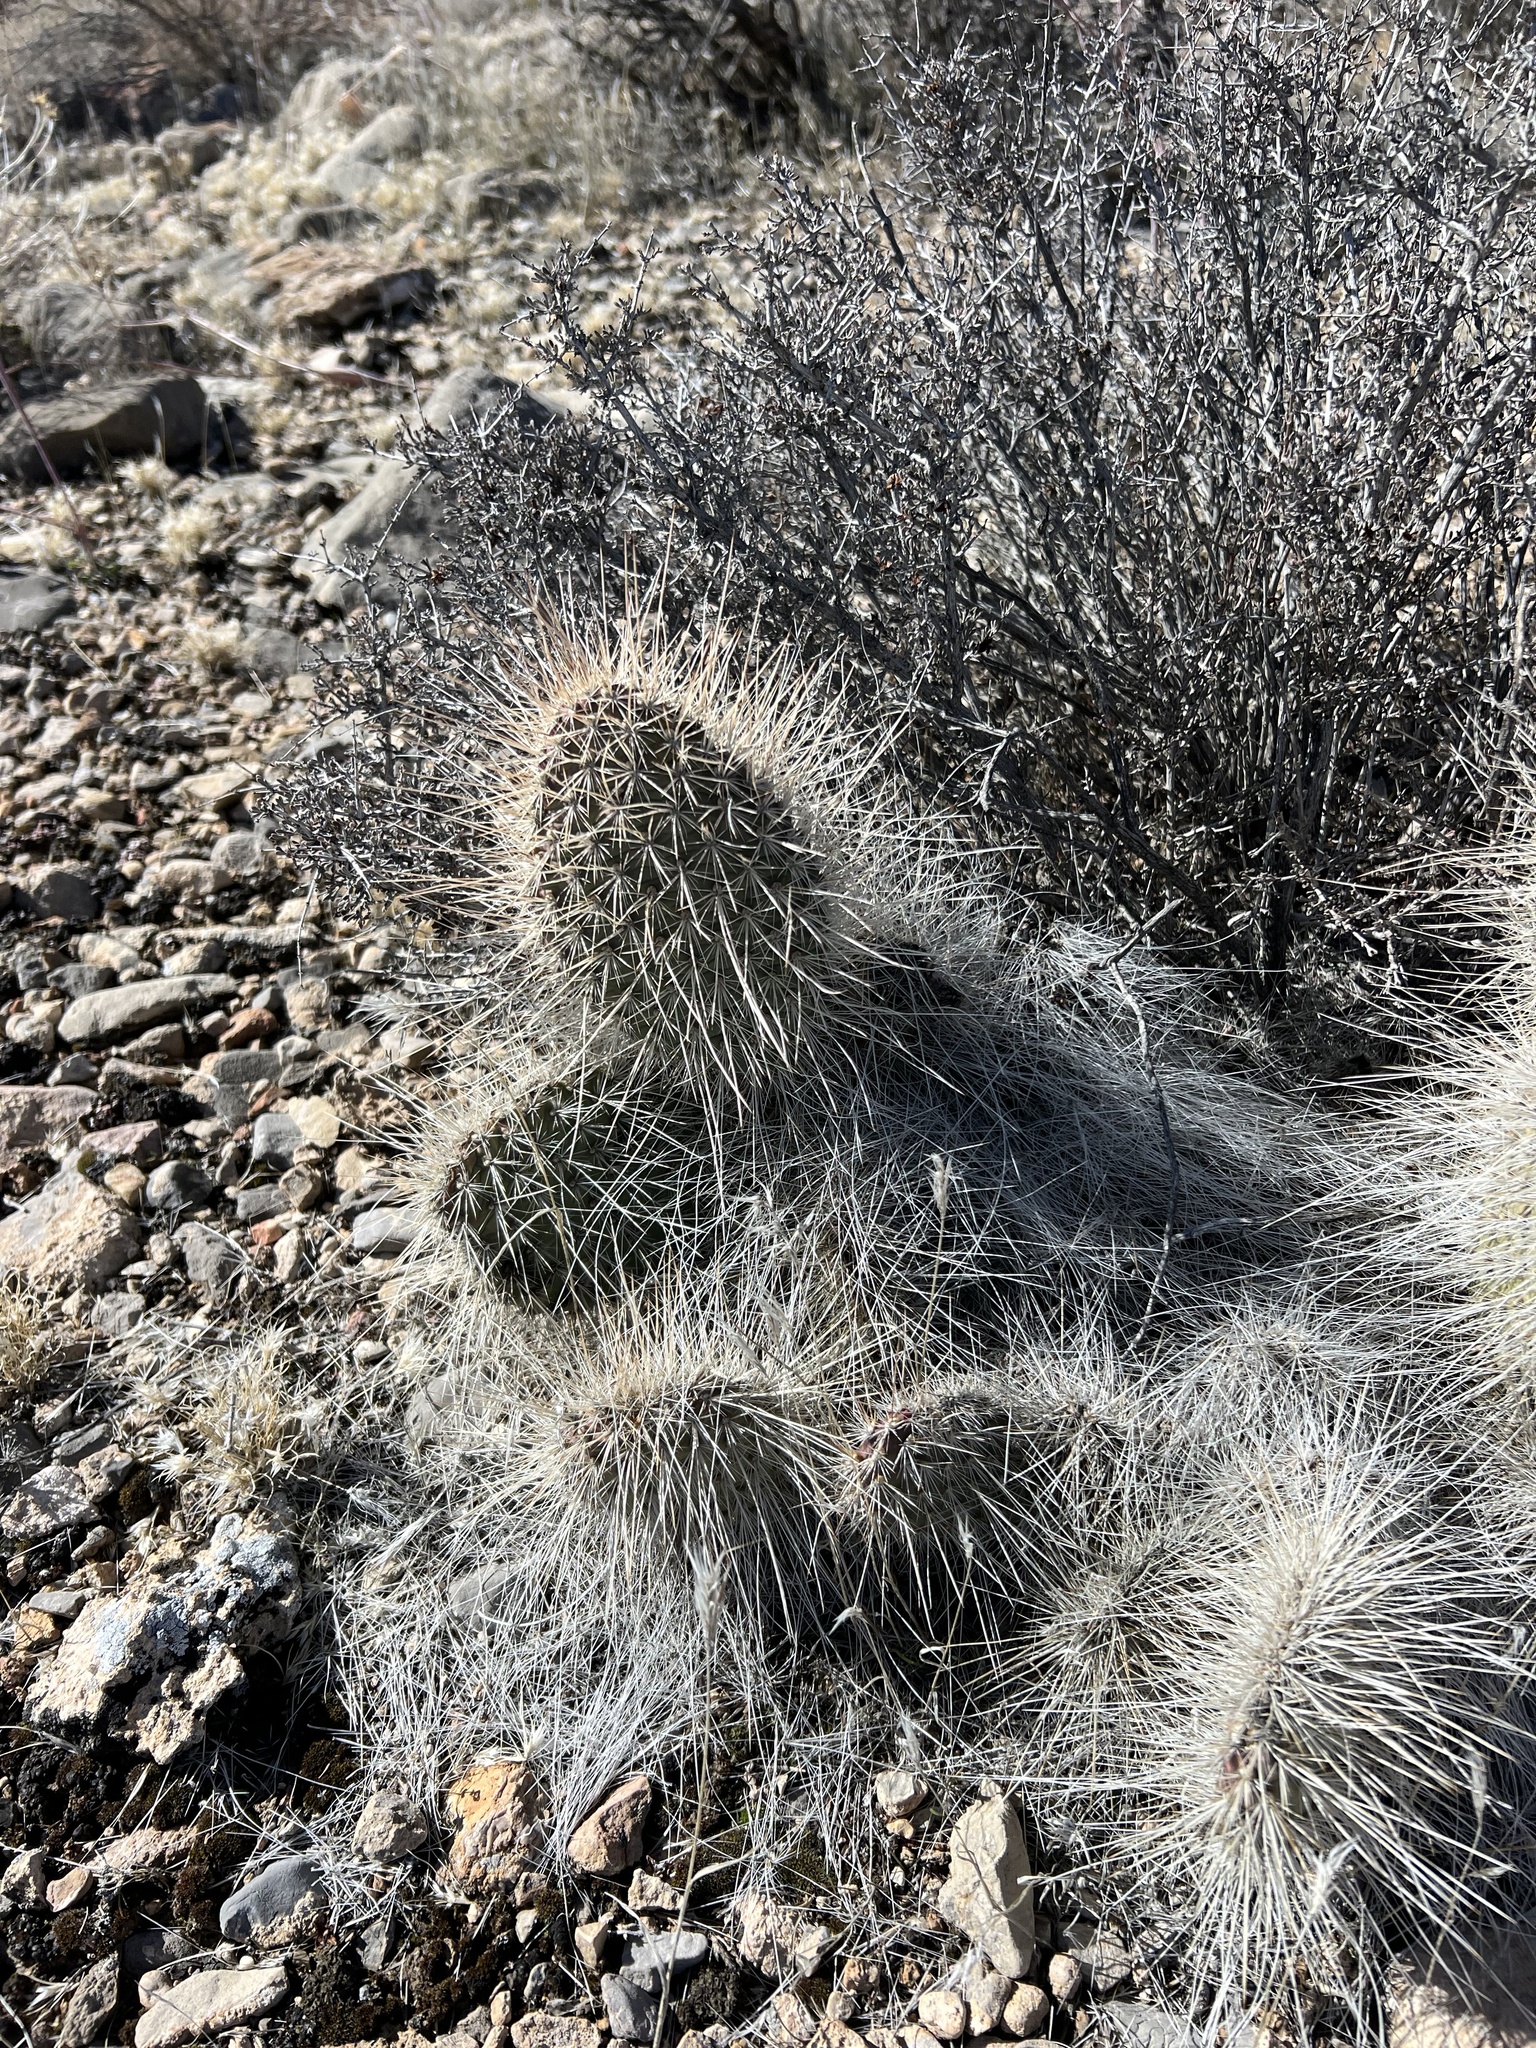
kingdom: Plantae
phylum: Tracheophyta
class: Magnoliopsida
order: Caryophyllales
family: Cactaceae
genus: Opuntia
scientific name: Opuntia polyacantha
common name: Plains prickly-pear
